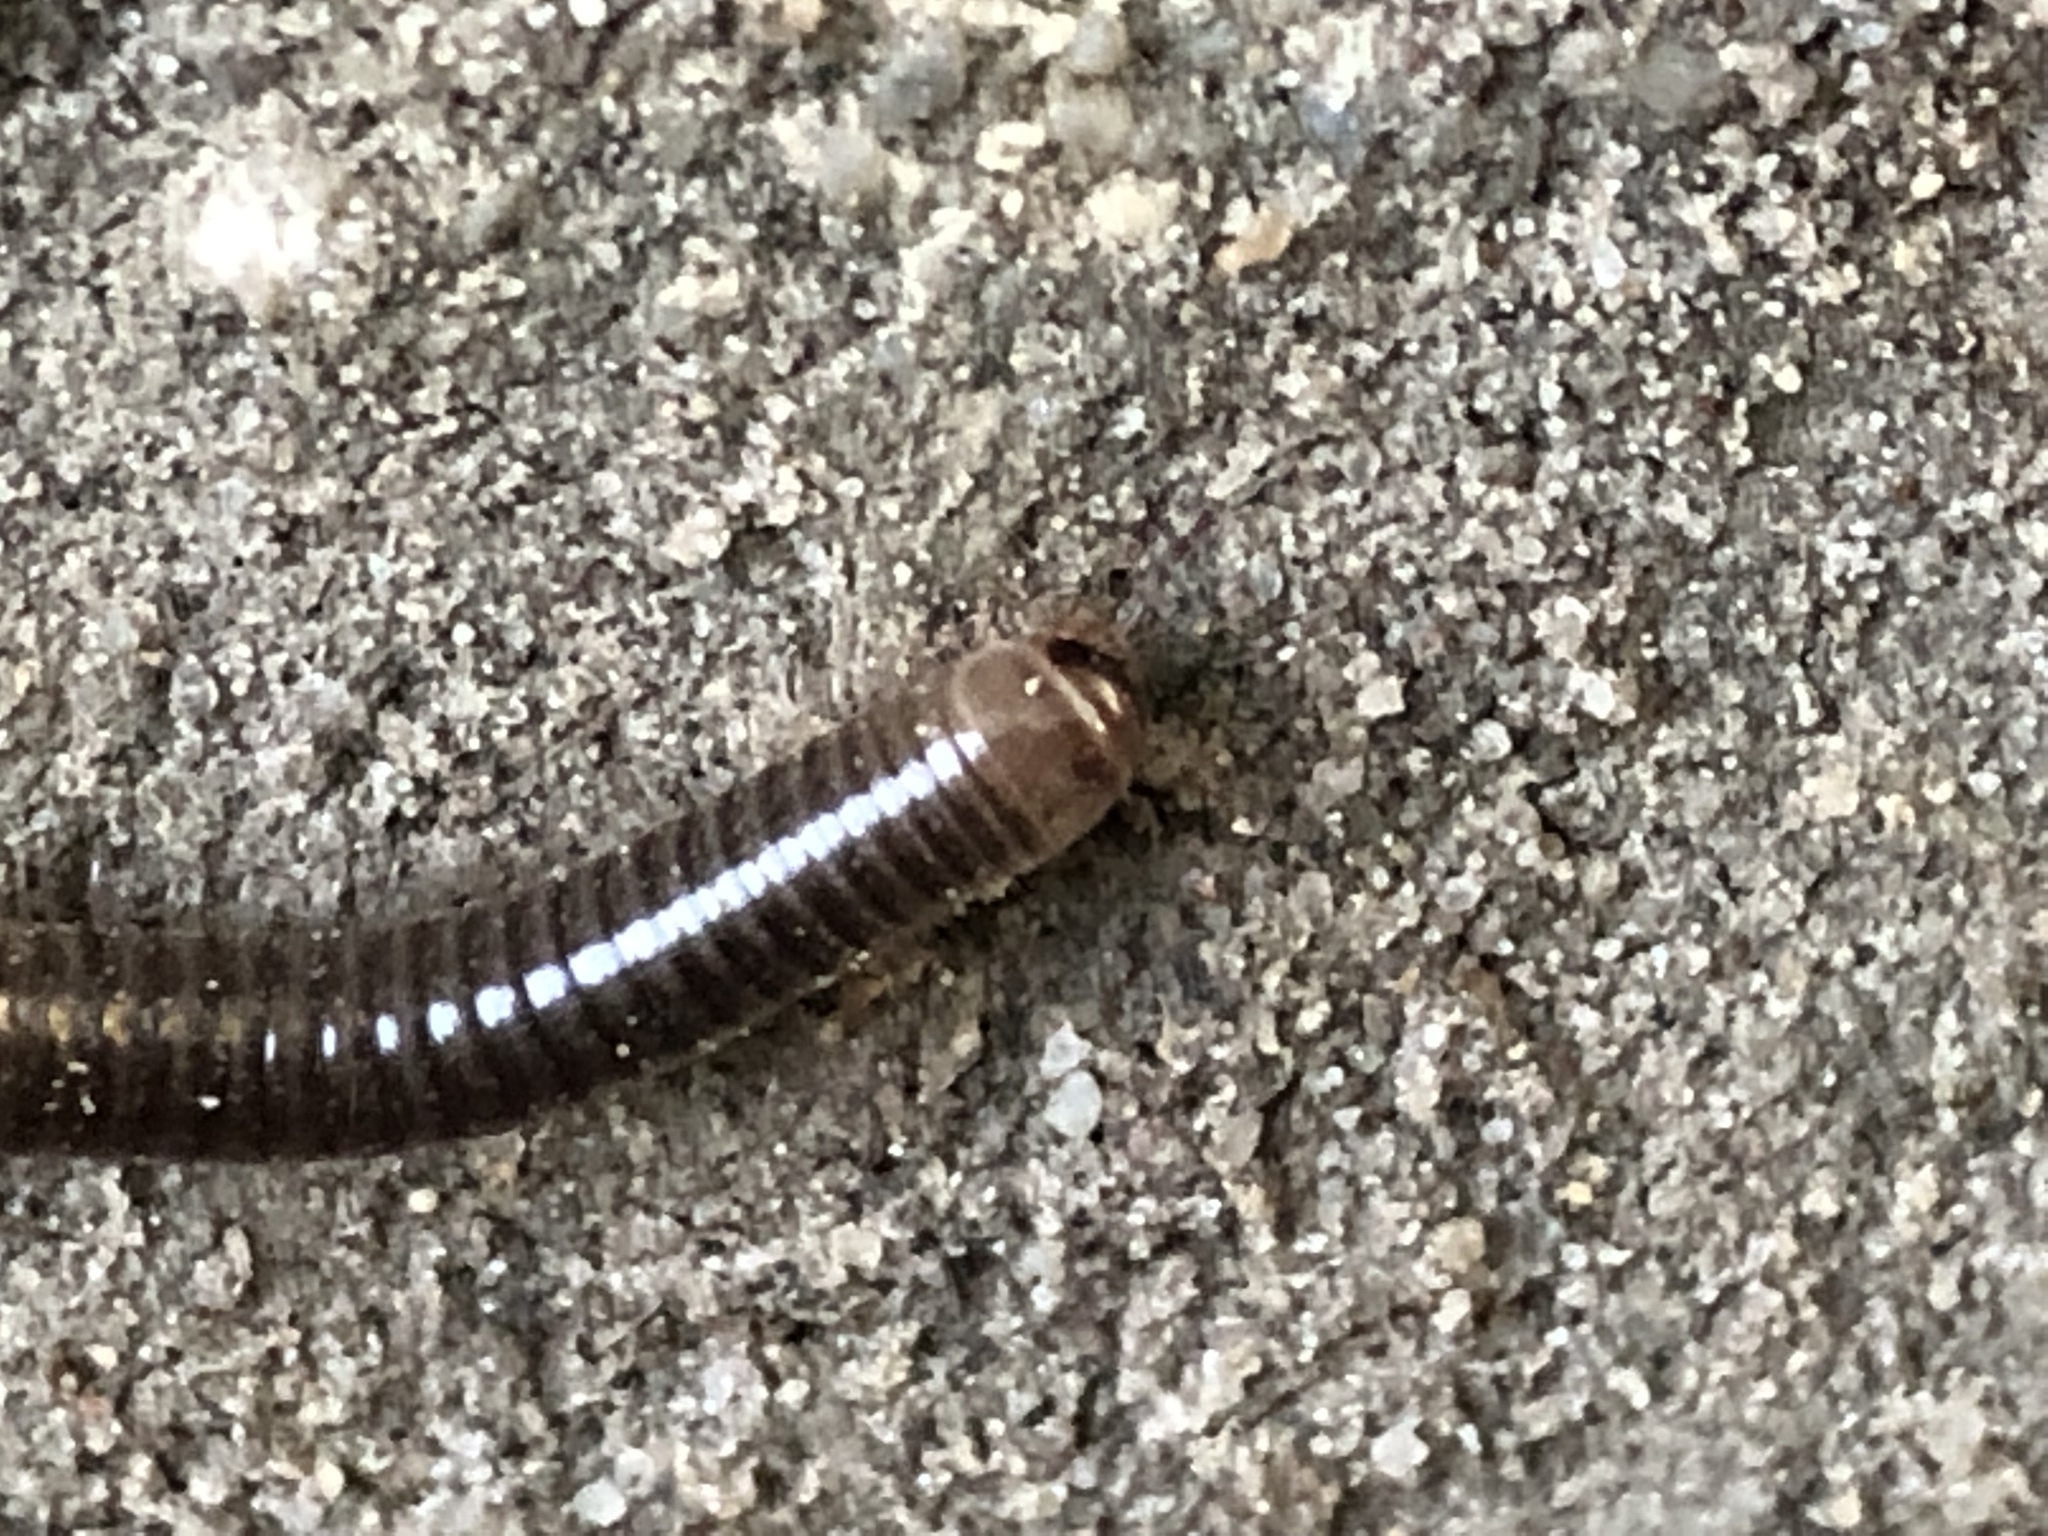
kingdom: Animalia
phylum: Arthropoda
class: Diplopoda
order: Julida
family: Julidae
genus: Cylindroiulus
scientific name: Cylindroiulus caeruleocinctus
